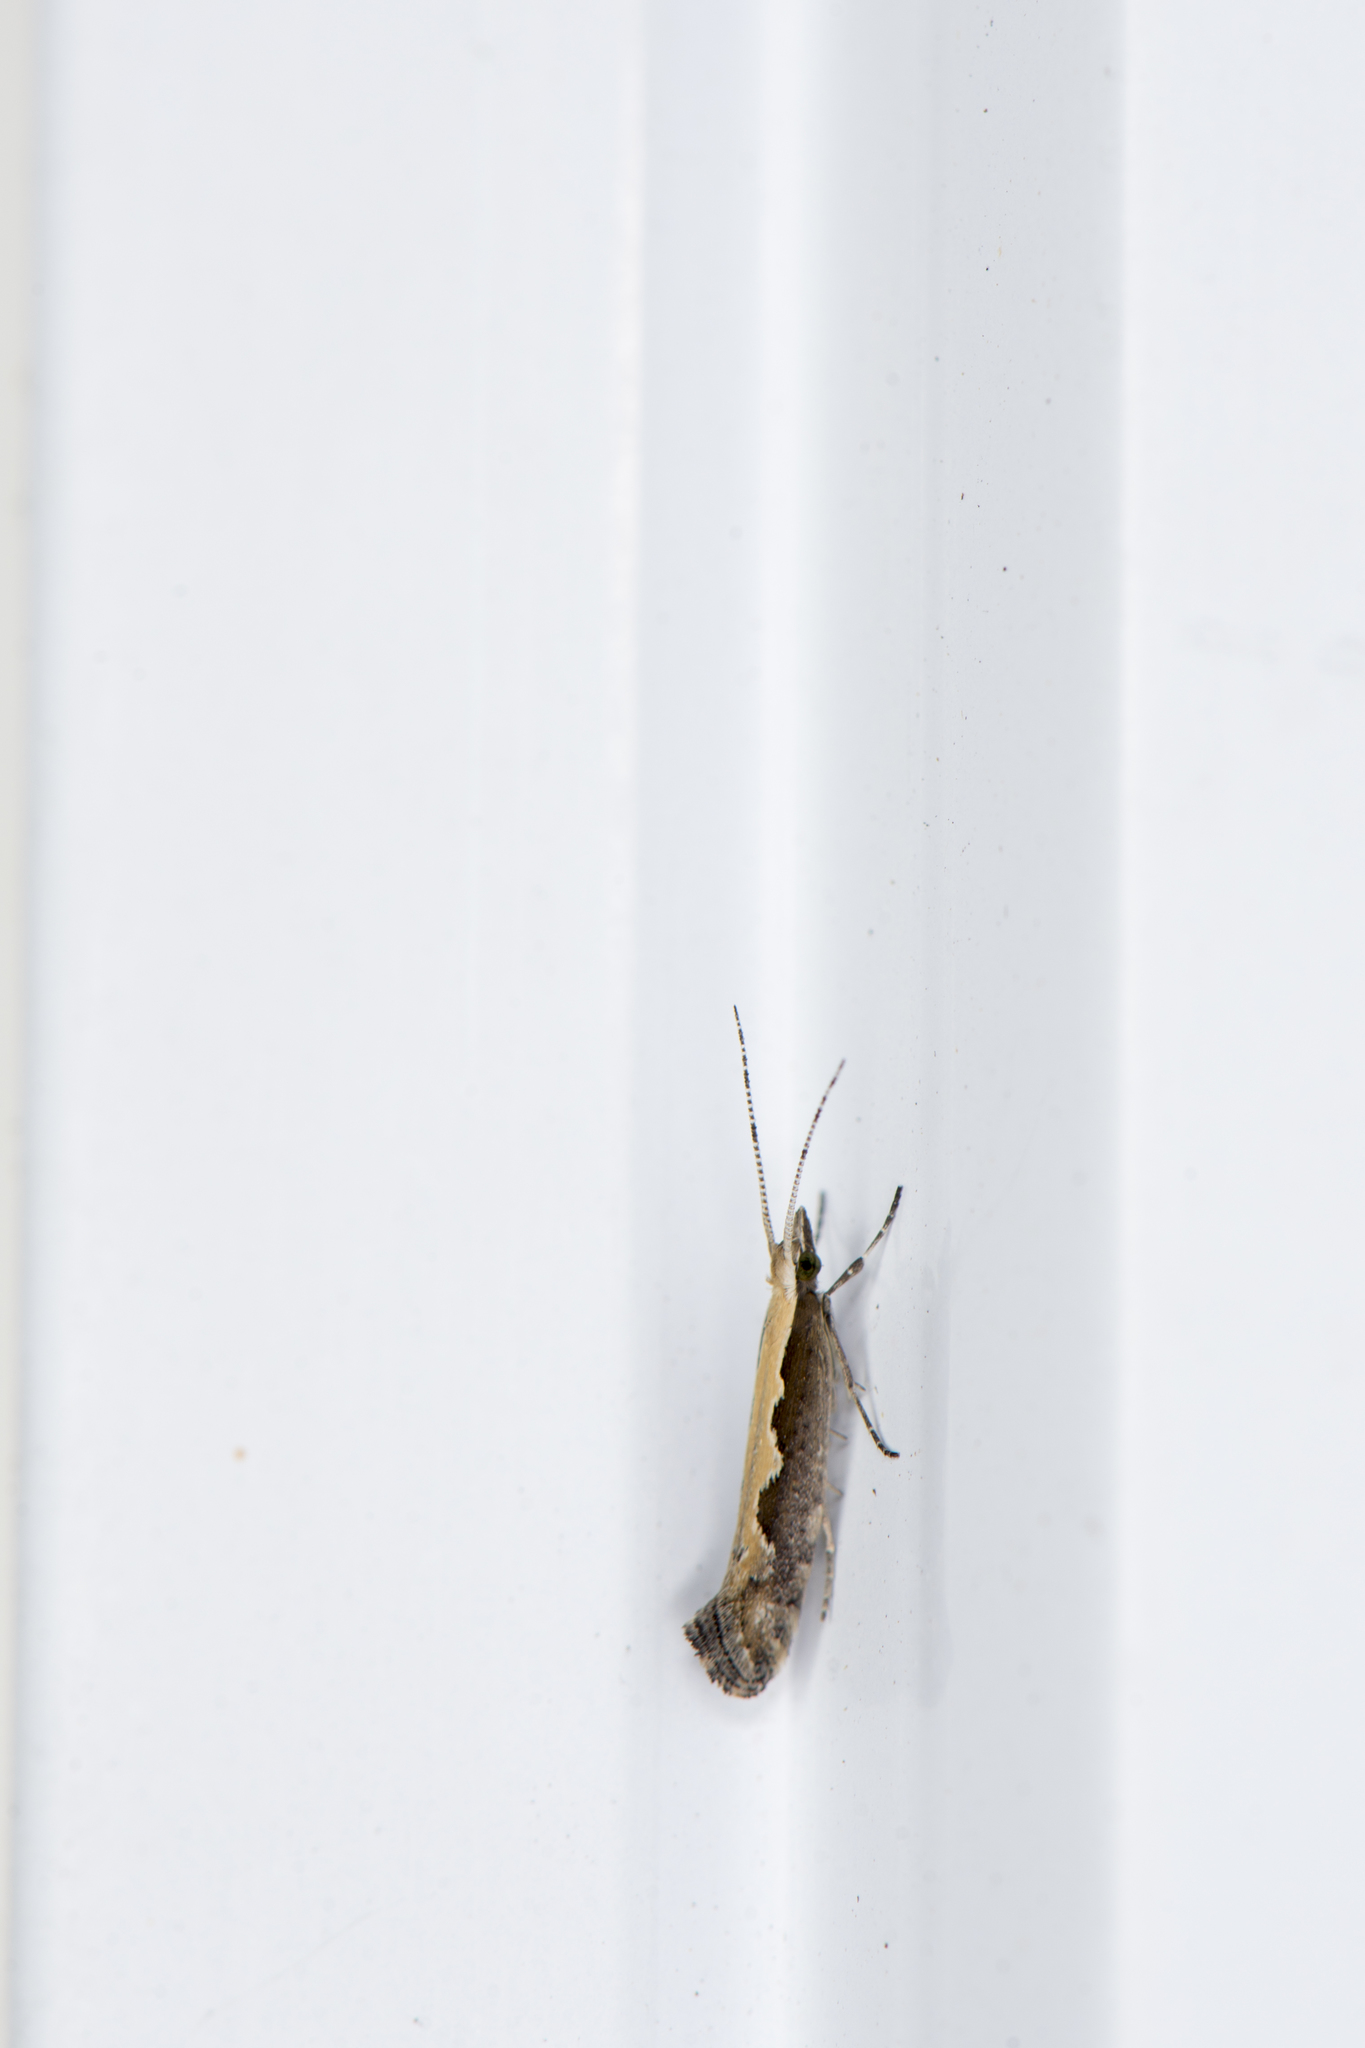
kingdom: Animalia
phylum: Arthropoda
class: Insecta
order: Lepidoptera
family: Plutellidae
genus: Plutella
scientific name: Plutella xylostella
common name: Diamond-back moth
